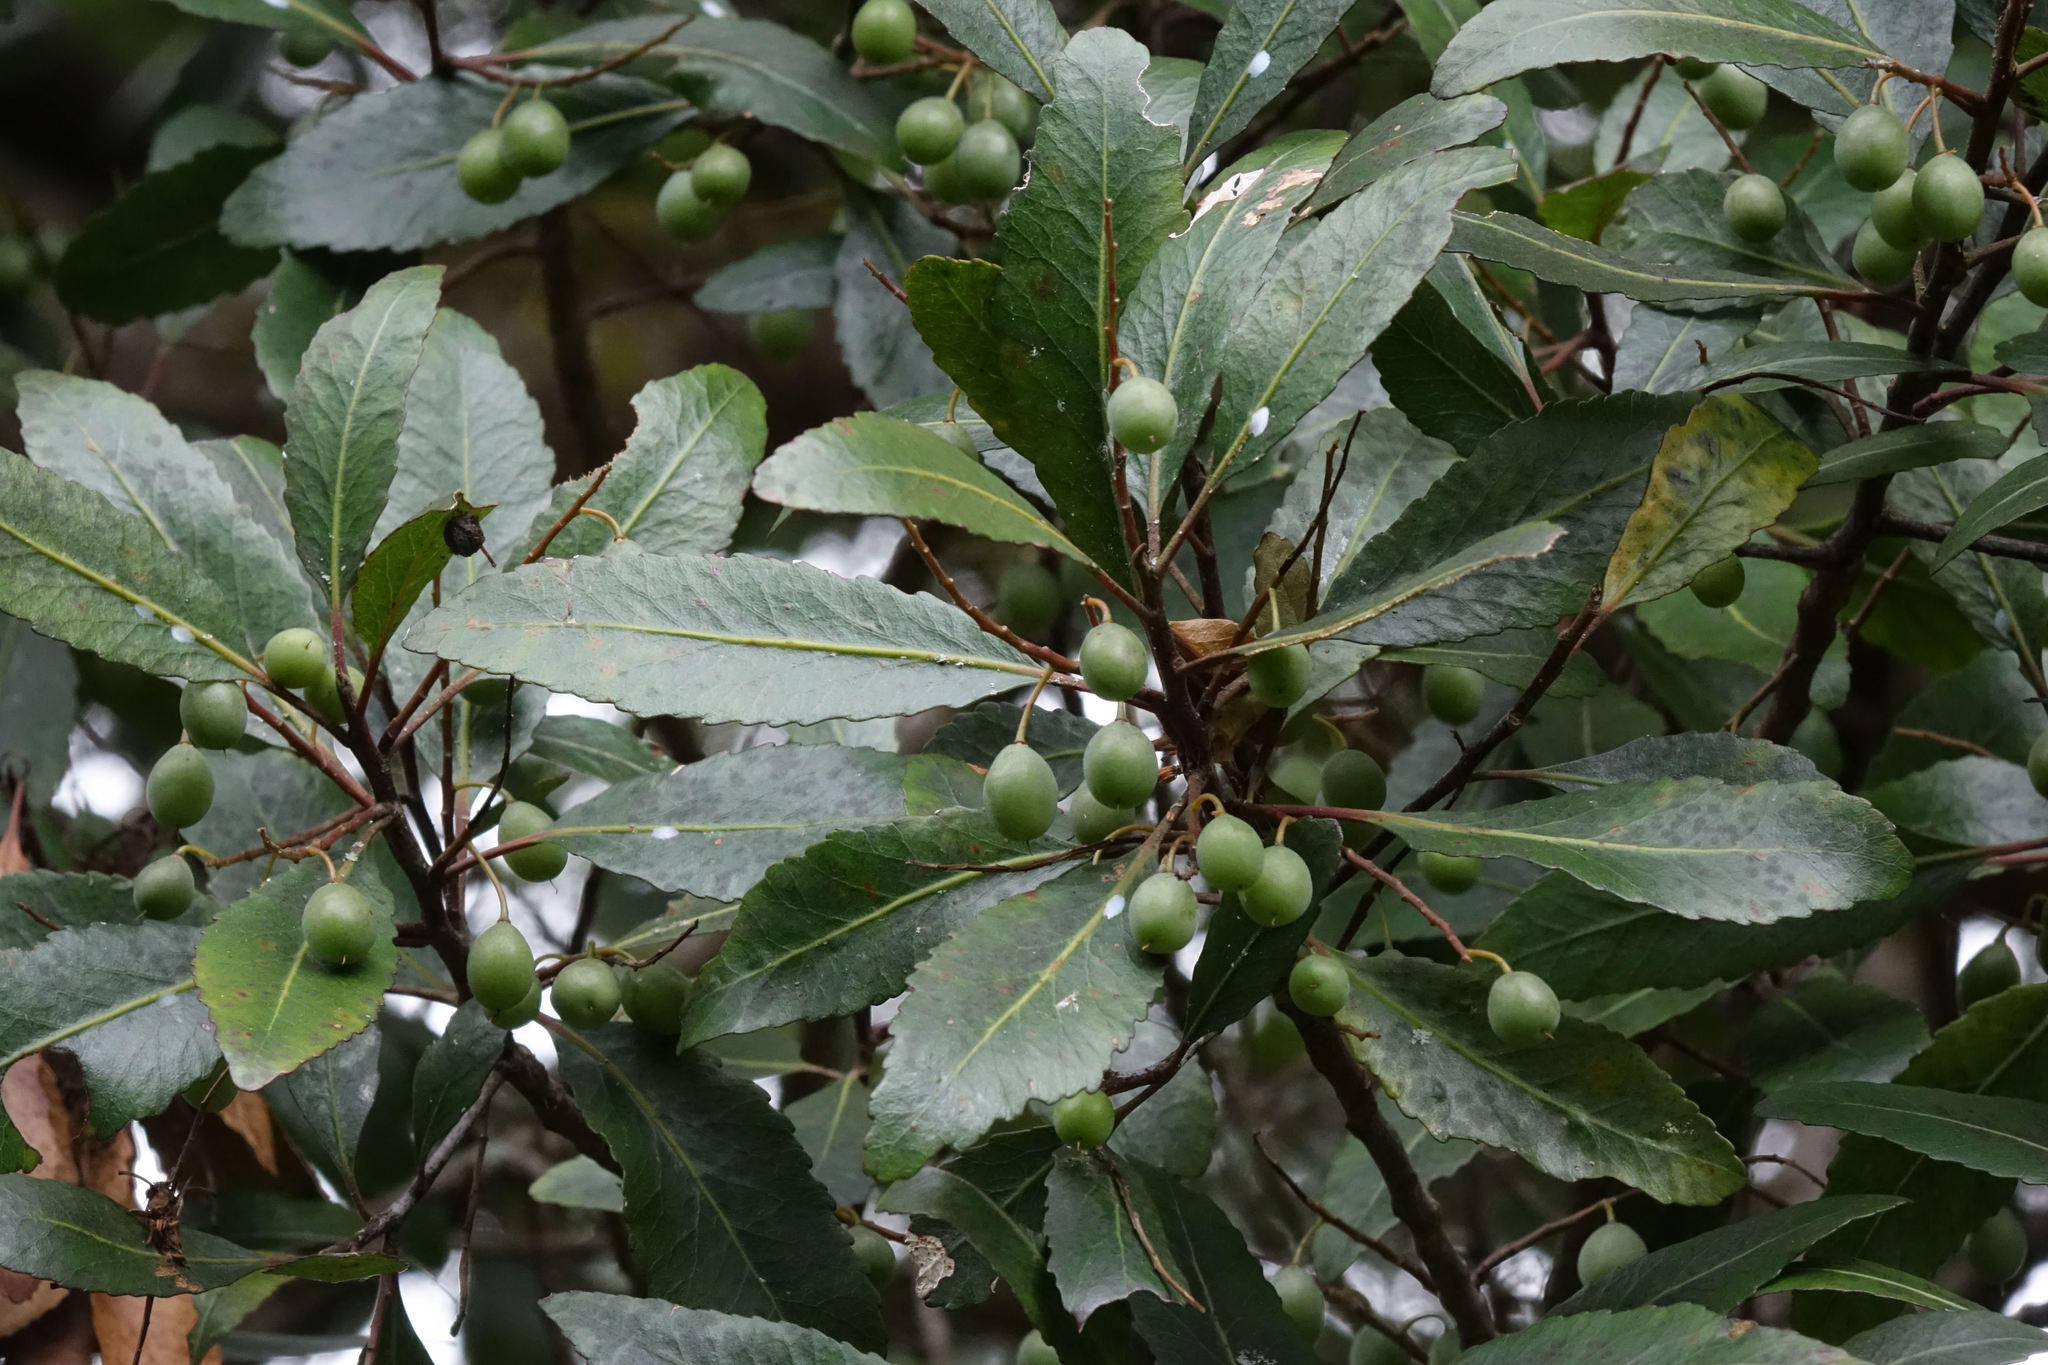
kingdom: Plantae
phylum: Tracheophyta
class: Magnoliopsida
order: Oxalidales
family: Elaeocarpaceae
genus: Elaeocarpus
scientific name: Elaeocarpus hookerianus
